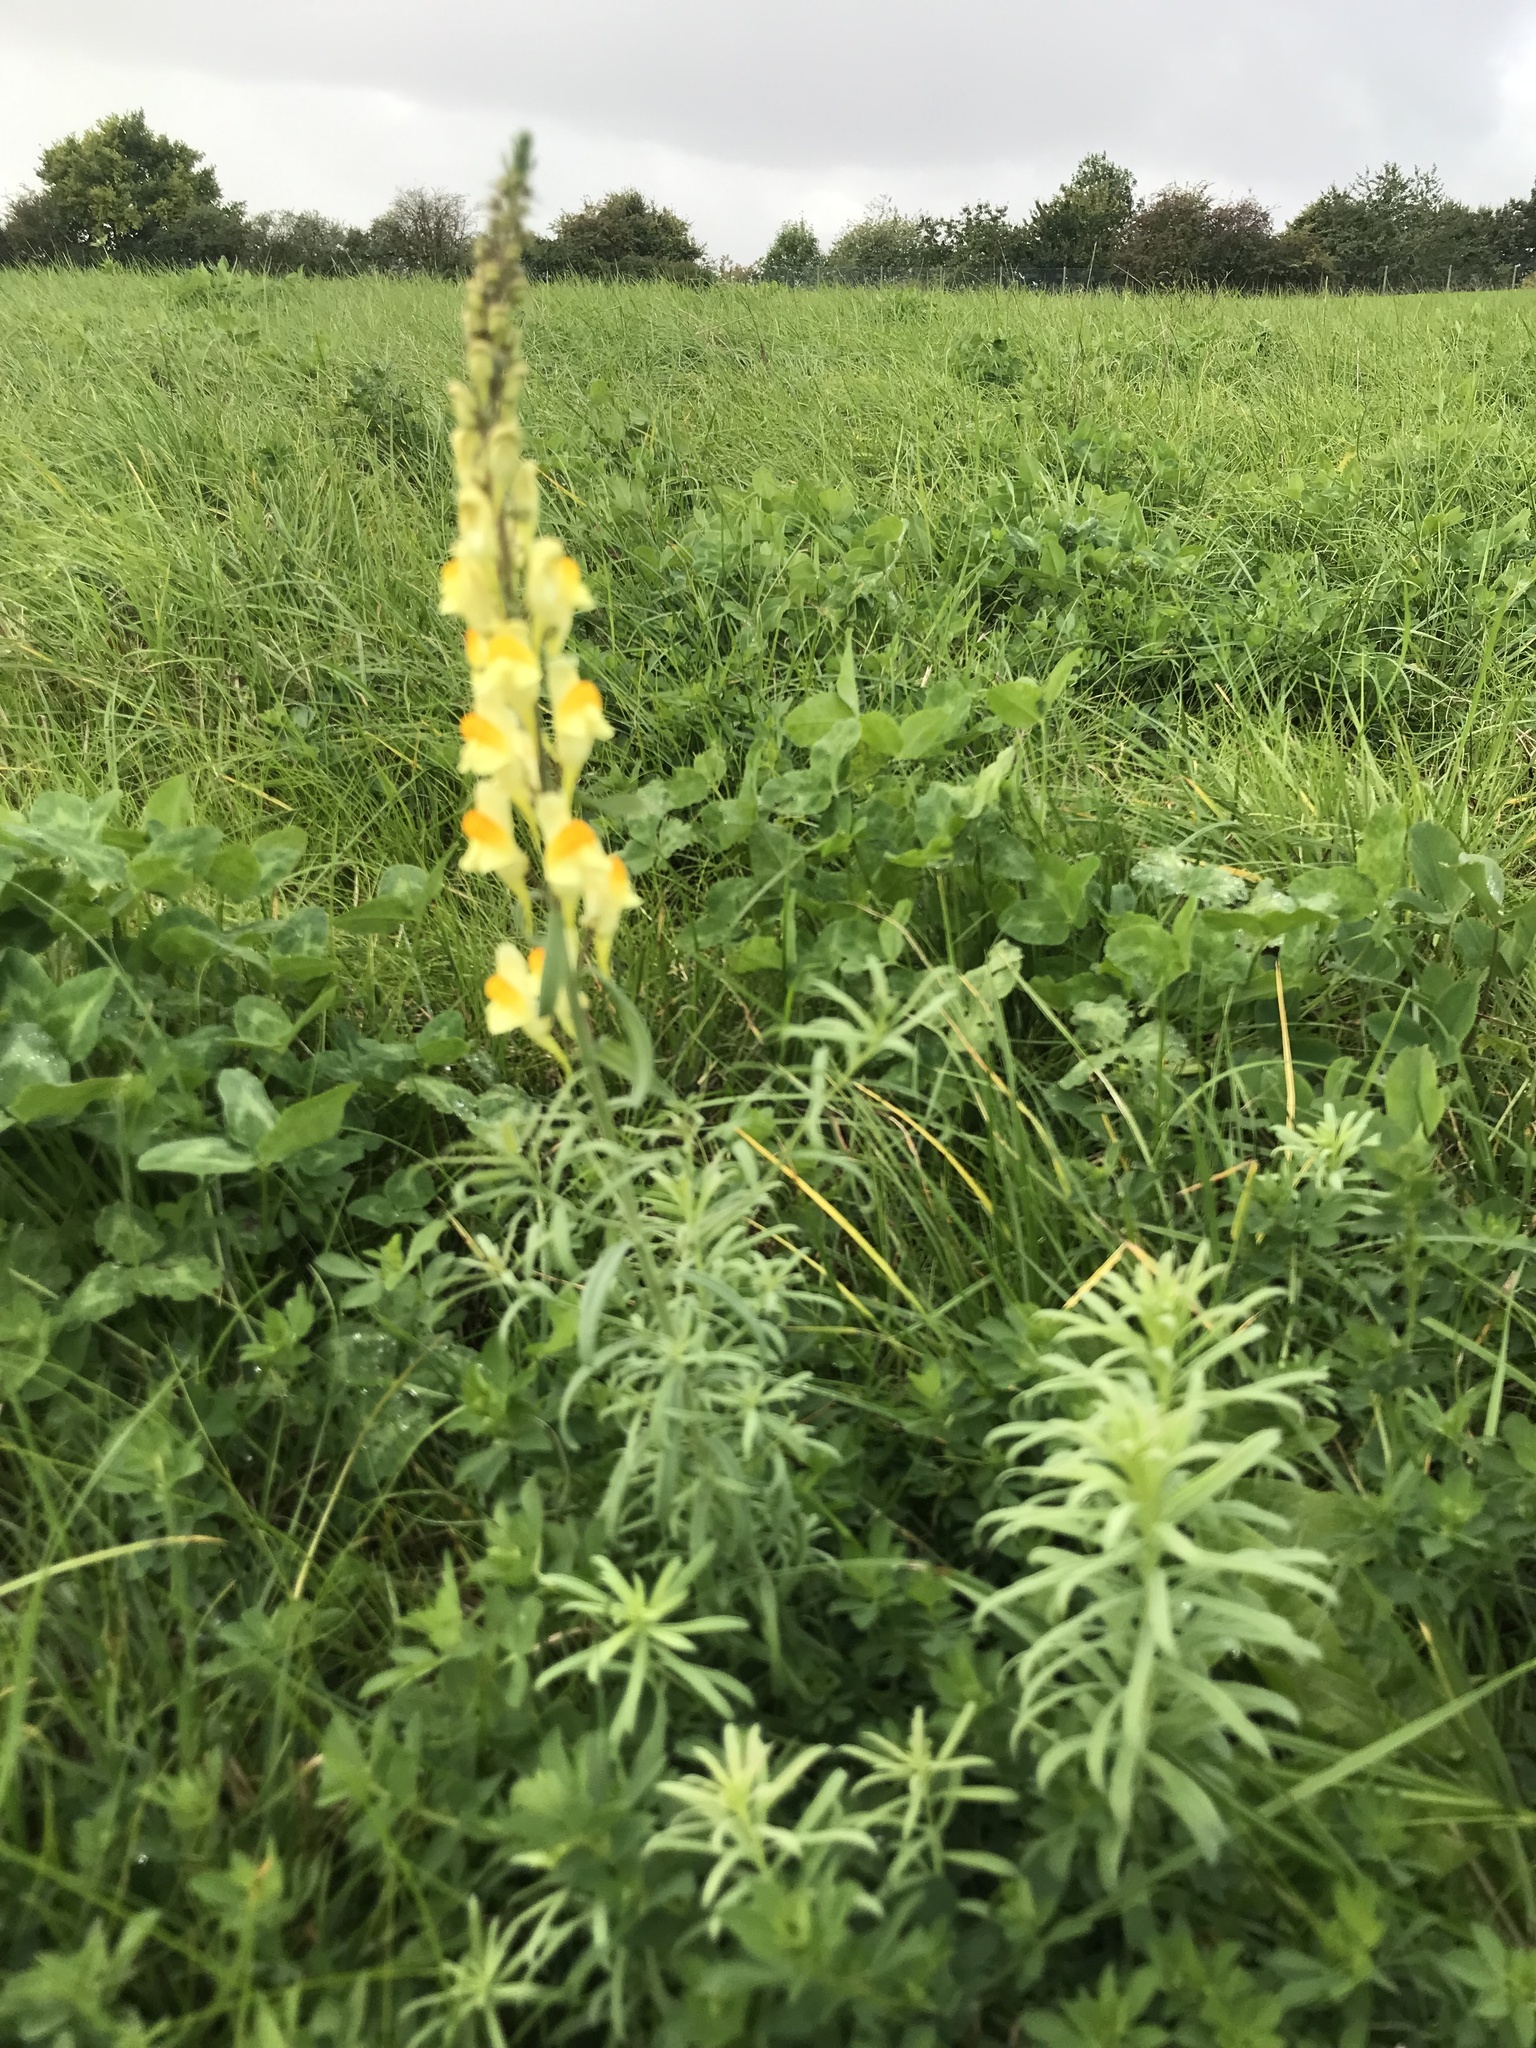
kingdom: Plantae
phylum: Tracheophyta
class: Magnoliopsida
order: Lamiales
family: Plantaginaceae
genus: Linaria
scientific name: Linaria vulgaris
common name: Butter and eggs
